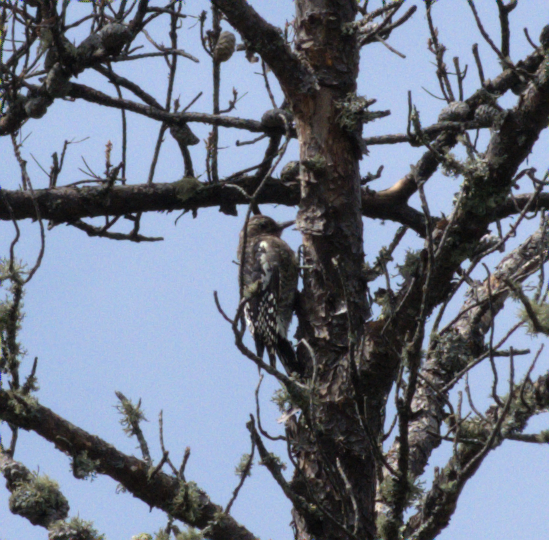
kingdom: Animalia
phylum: Chordata
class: Aves
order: Piciformes
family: Picidae
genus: Sphyrapicus
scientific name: Sphyrapicus varius
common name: Yellow-bellied sapsucker
